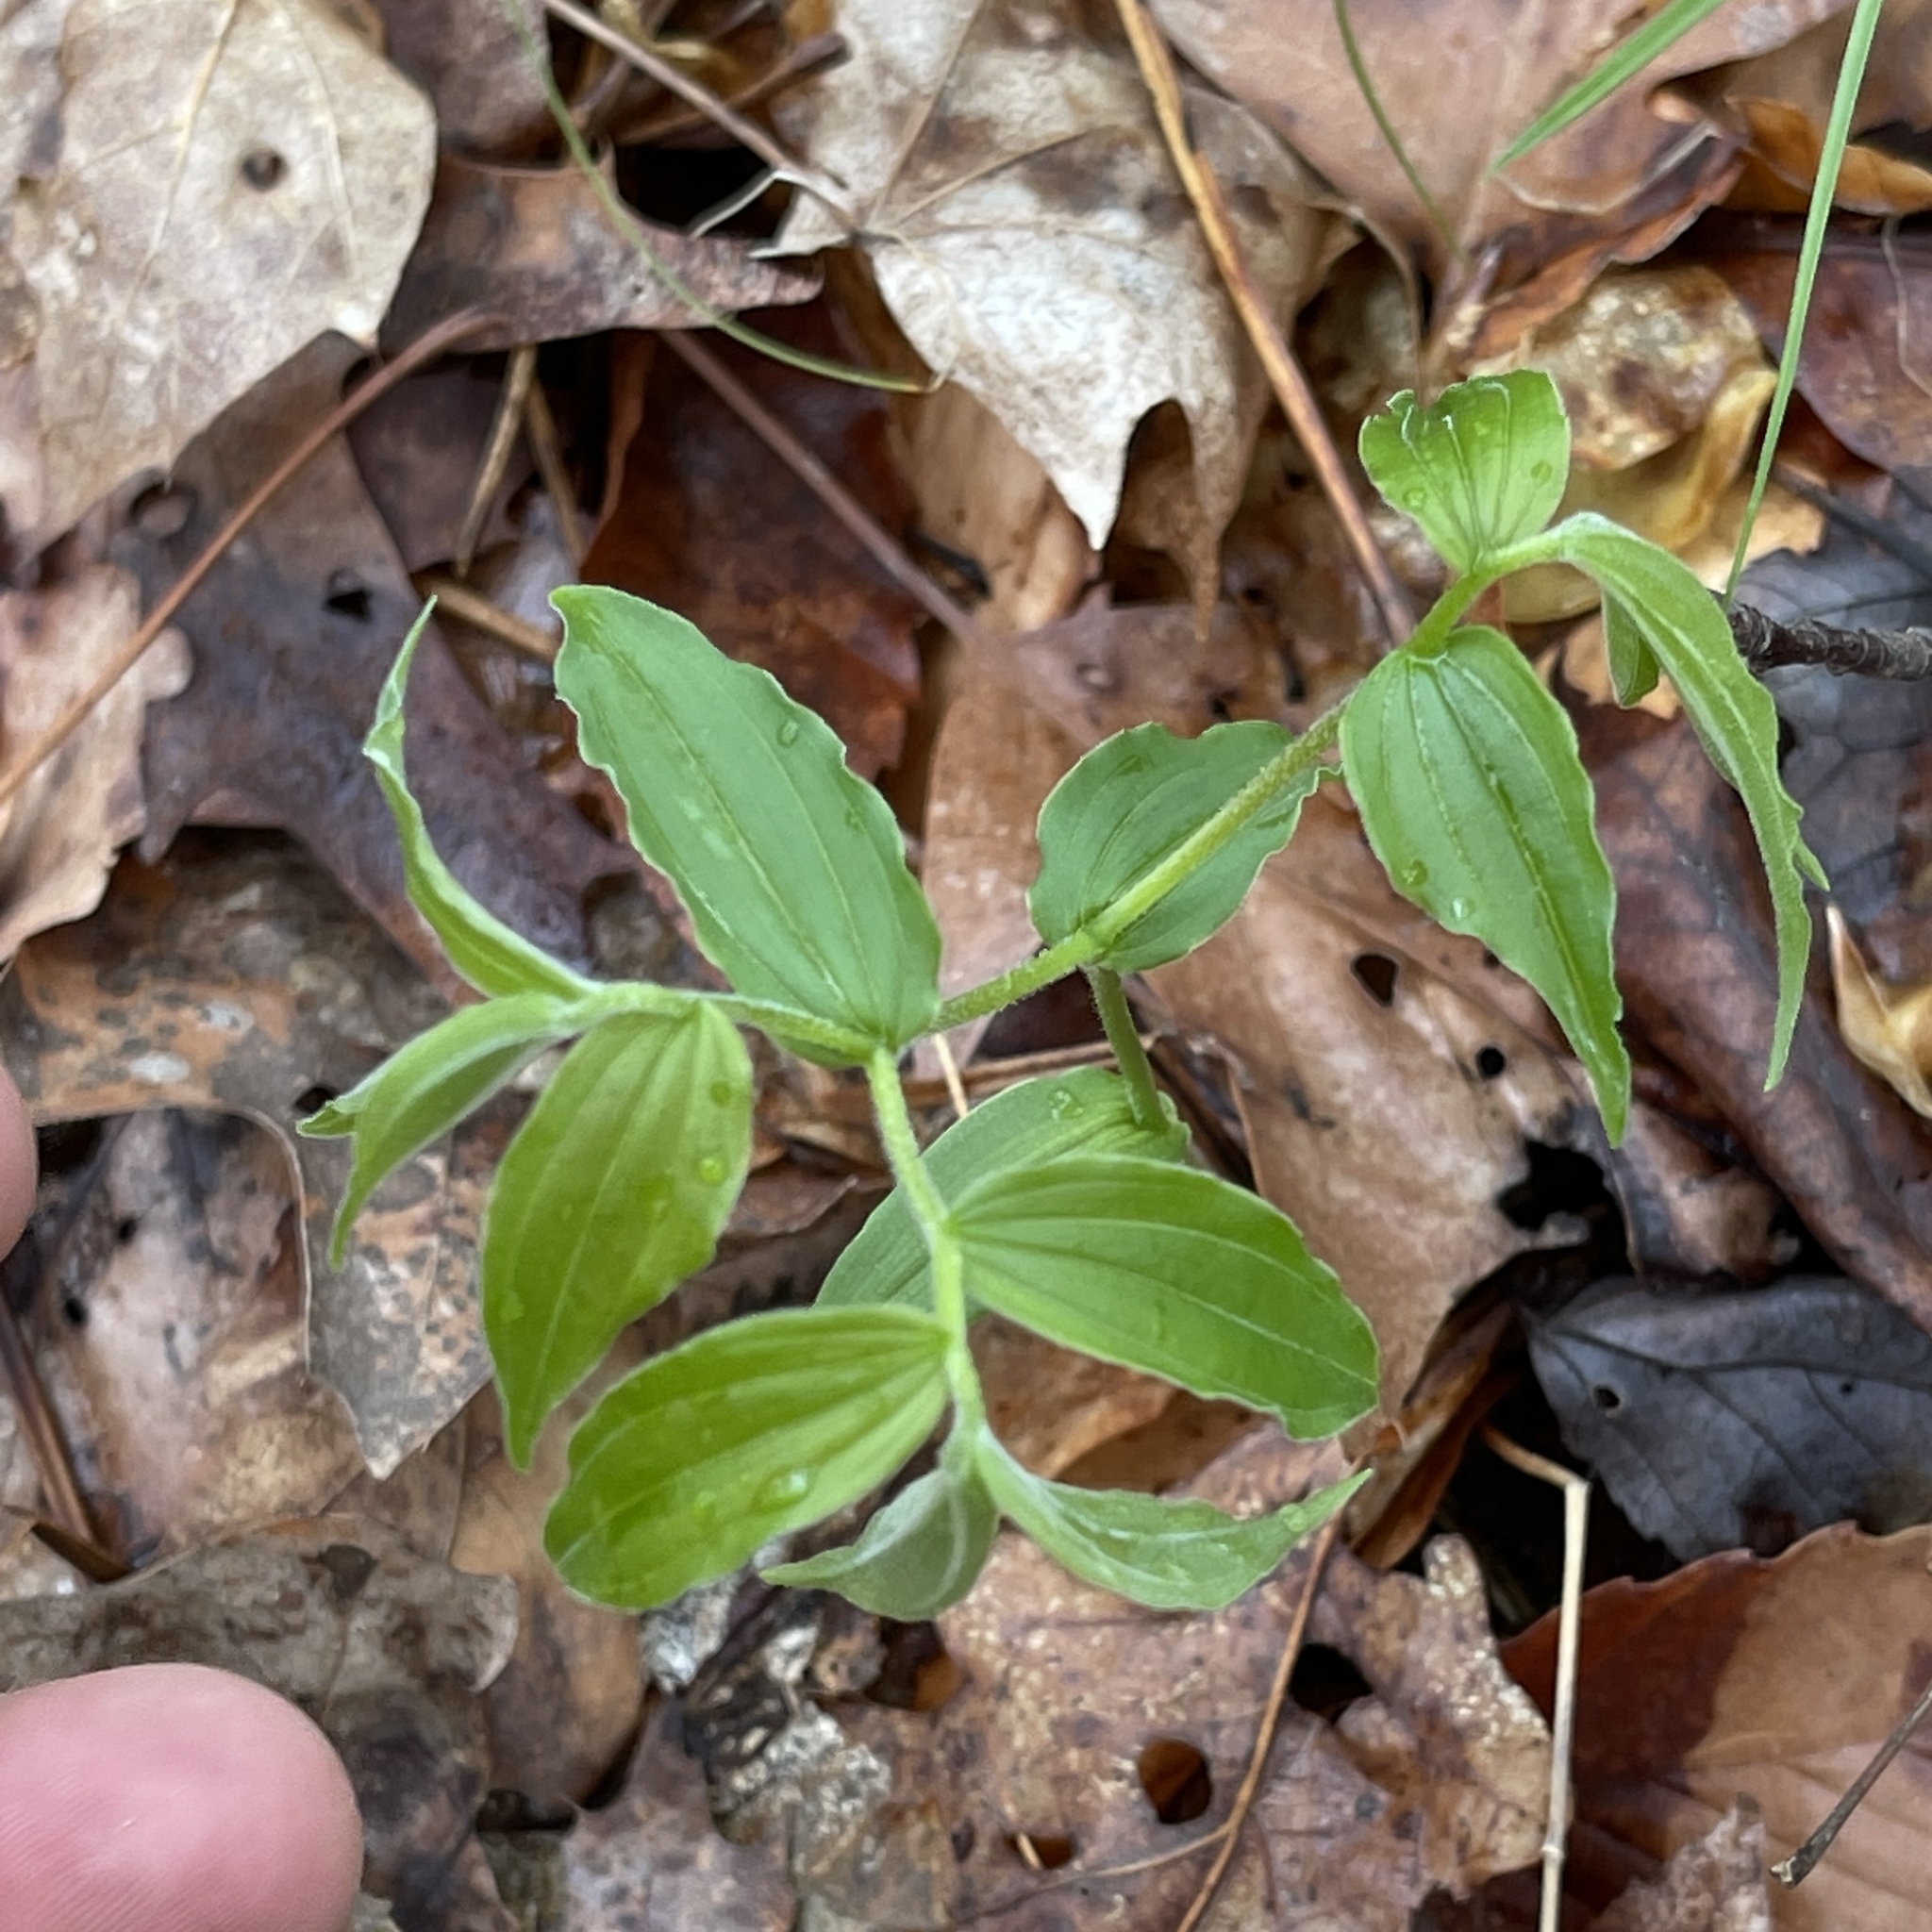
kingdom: Plantae
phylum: Tracheophyta
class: Liliopsida
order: Liliales
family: Liliaceae
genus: Prosartes
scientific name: Prosartes lanuginosa
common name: Hairy mandarin
